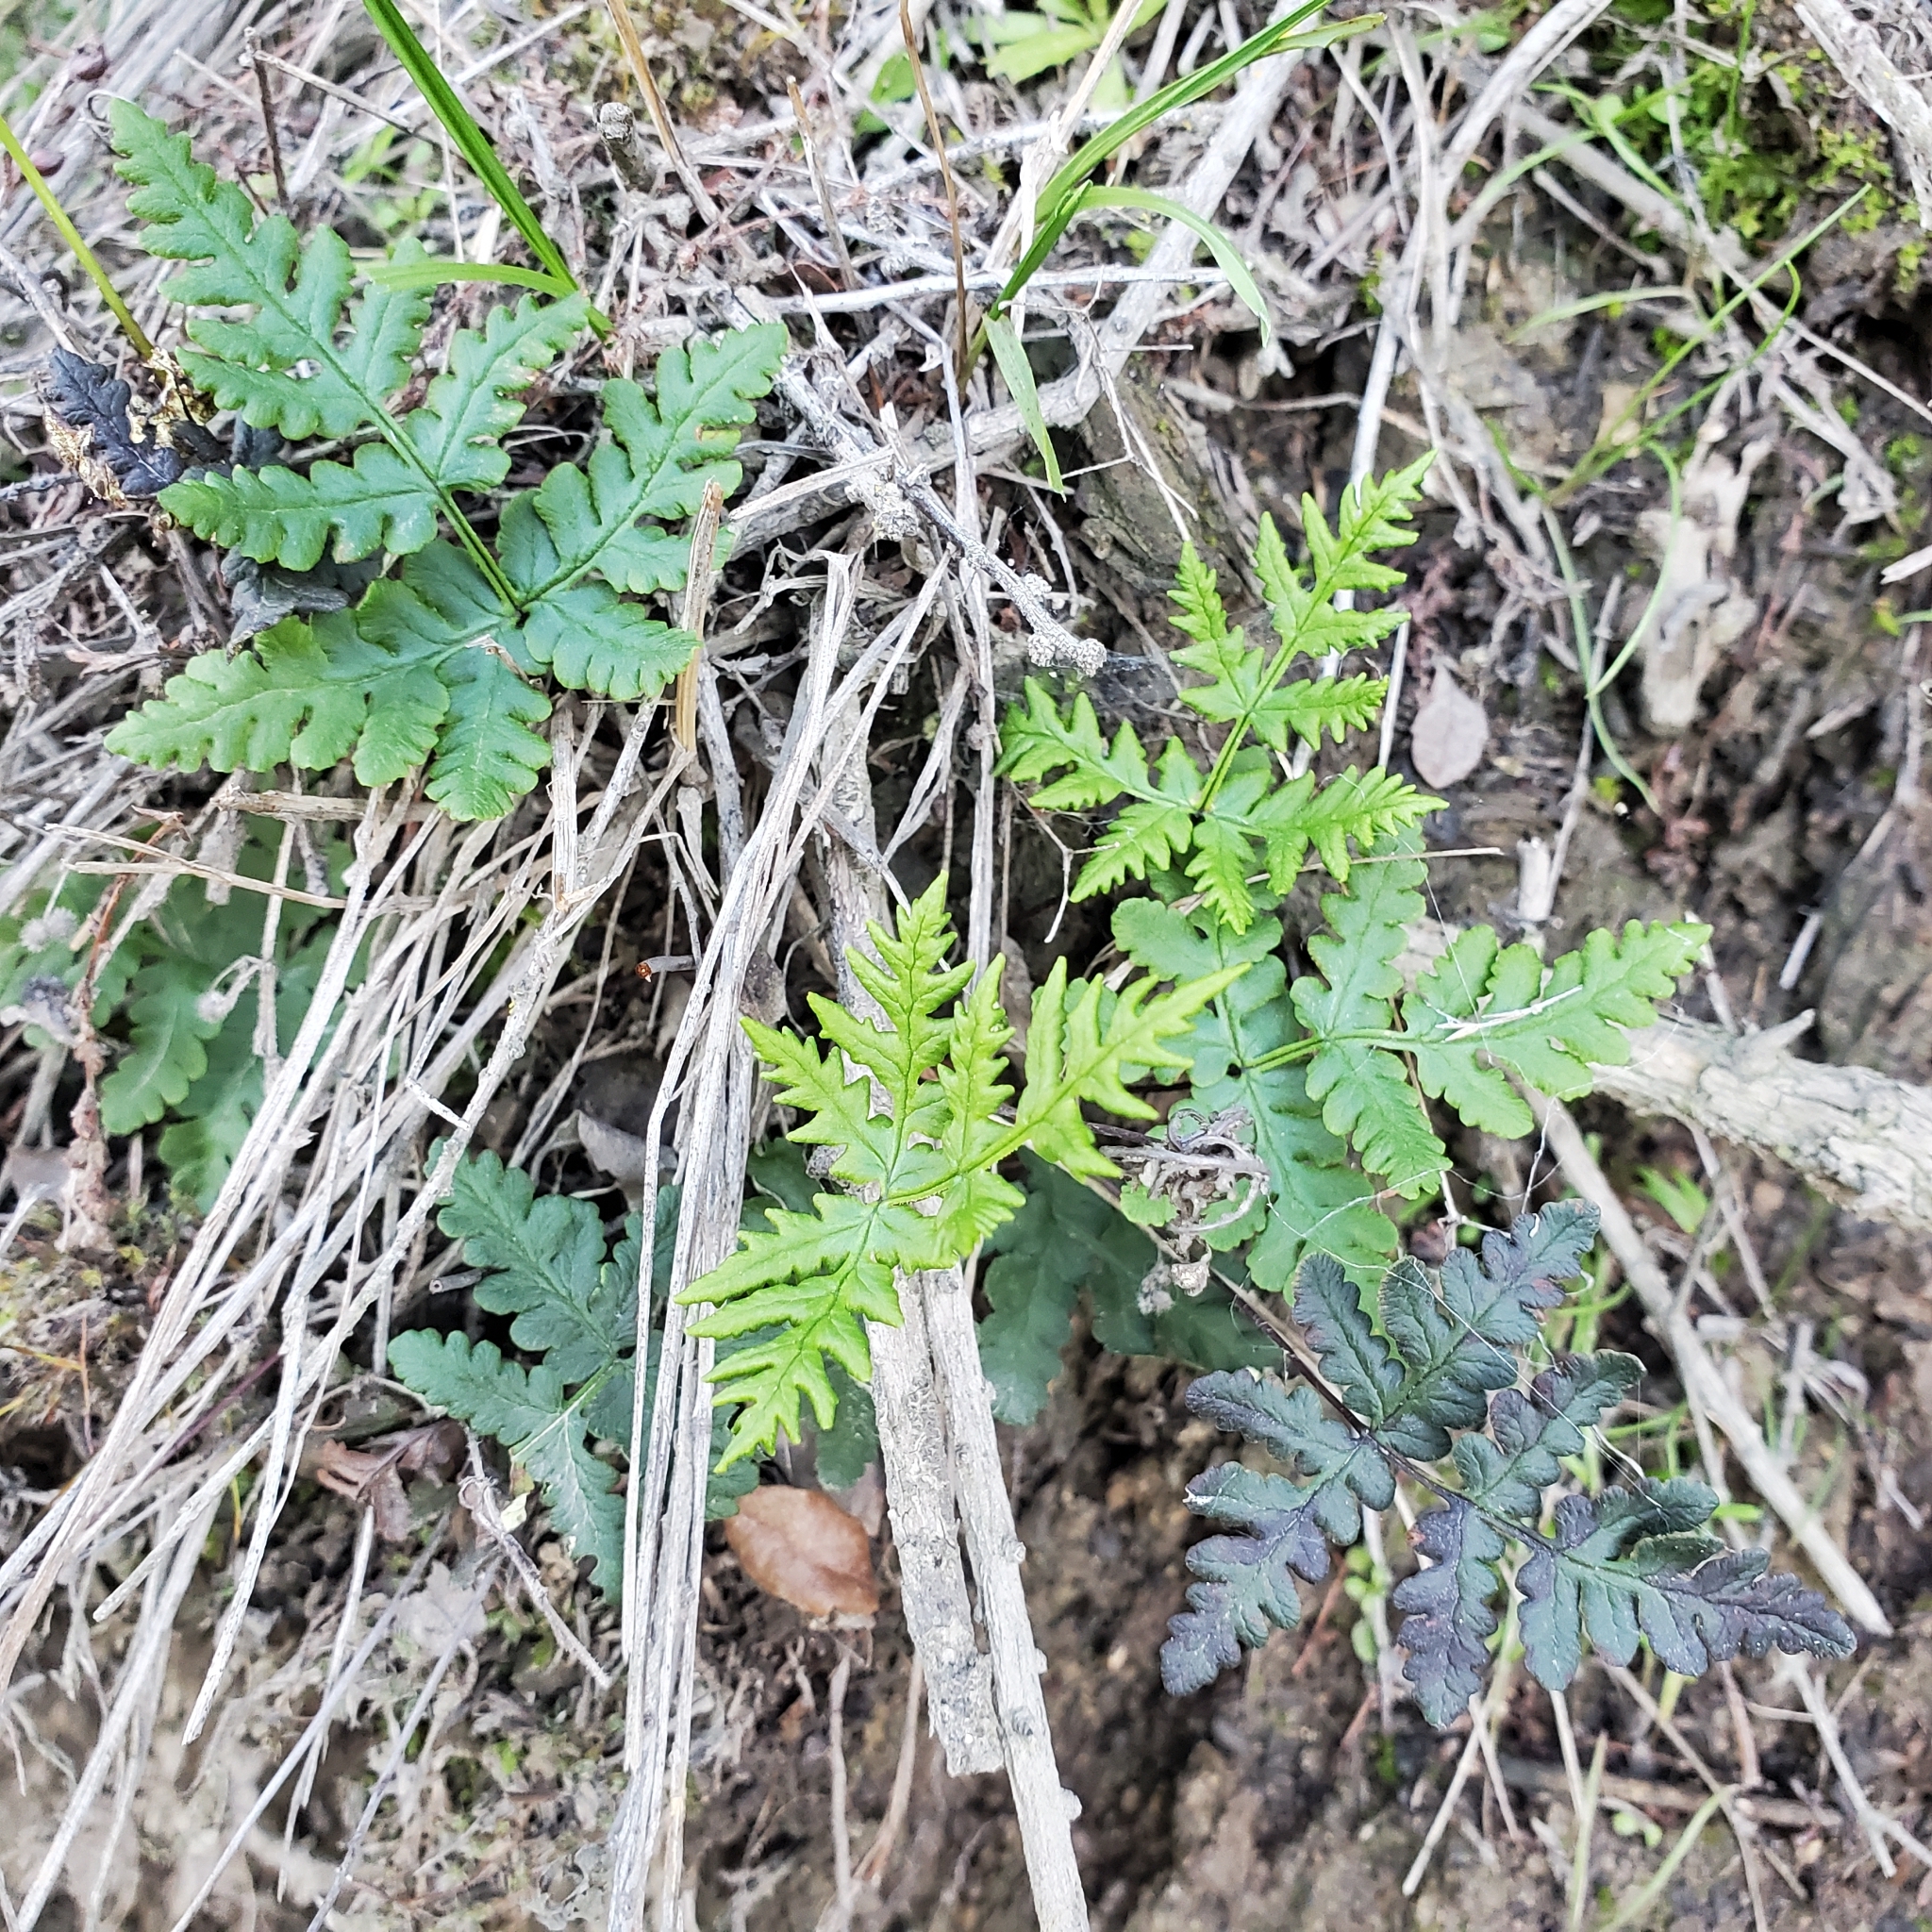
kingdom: Plantae
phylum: Tracheophyta
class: Polypodiopsida
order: Polypodiales
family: Pteridaceae
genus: Pentagramma
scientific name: Pentagramma triangularis
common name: Gold fern
